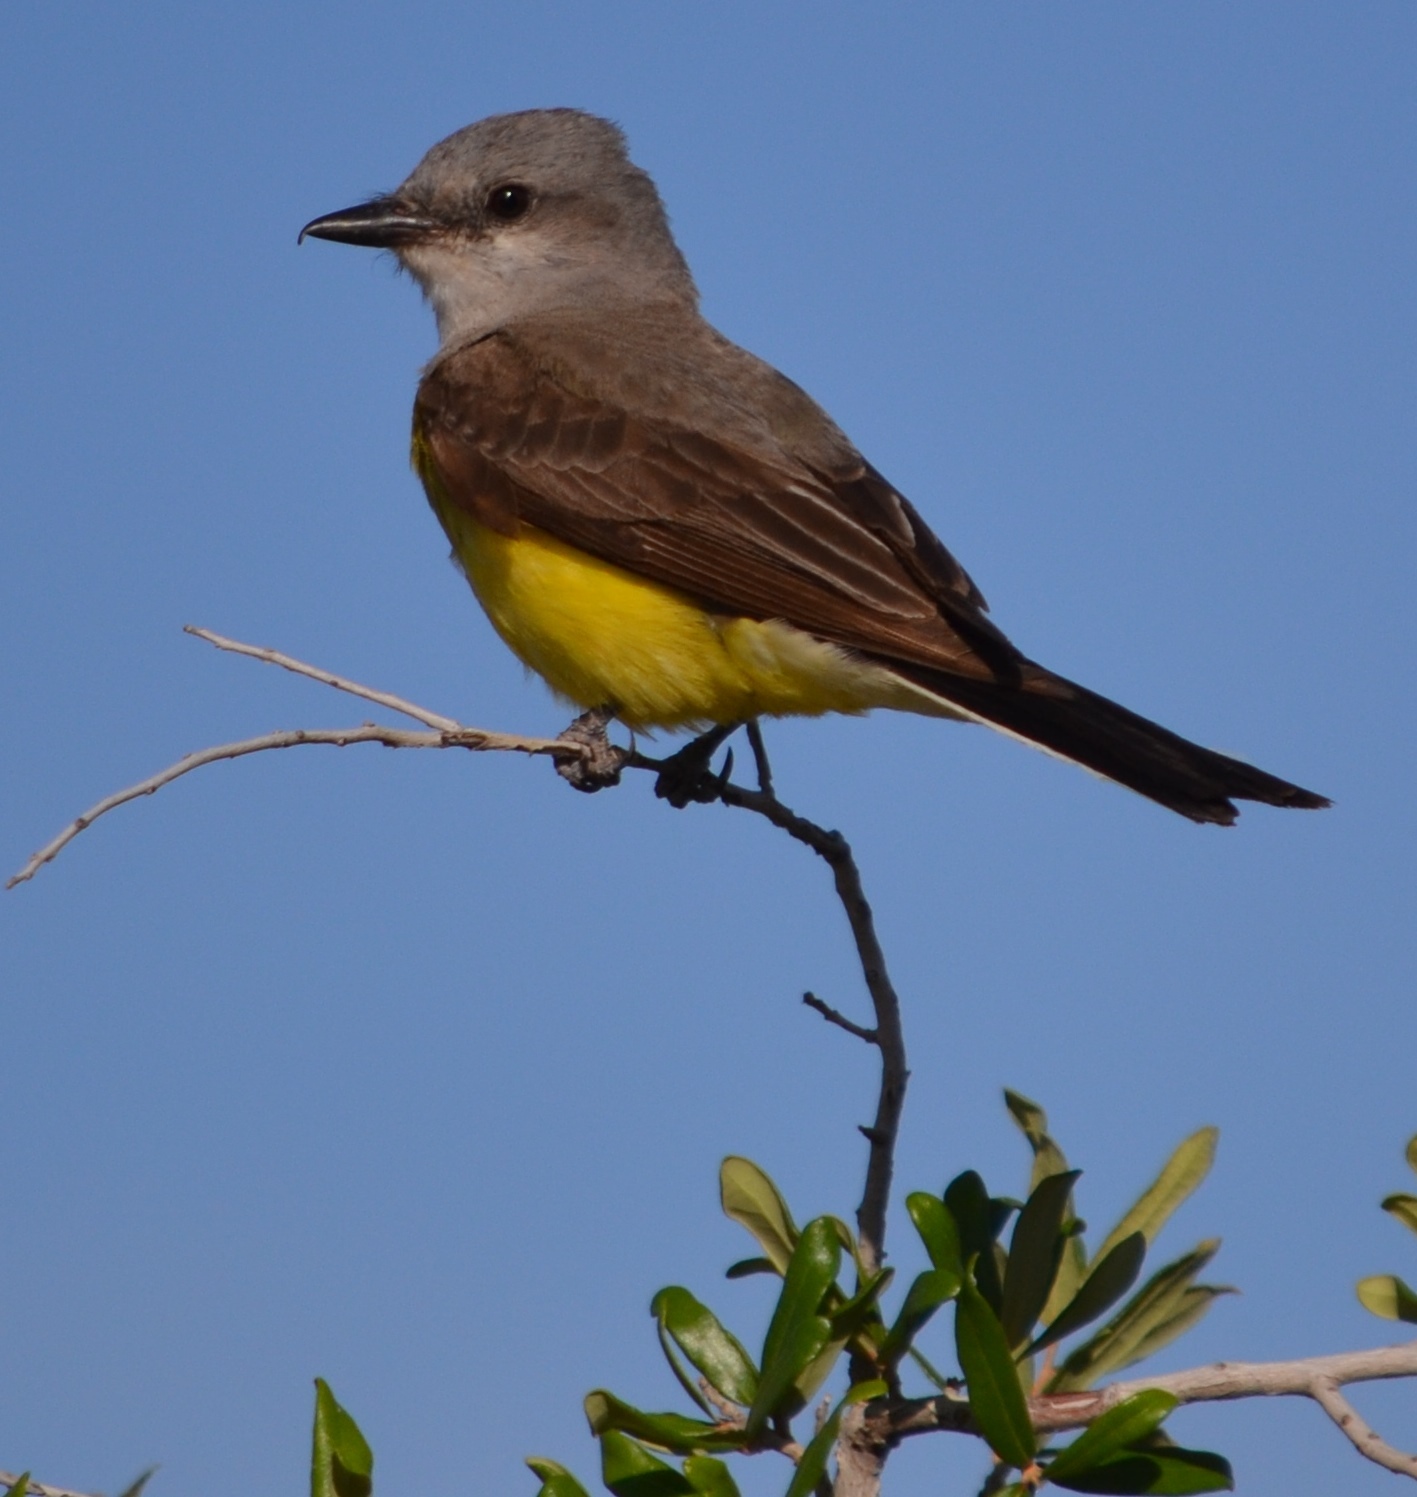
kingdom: Animalia
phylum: Chordata
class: Aves
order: Passeriformes
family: Tyrannidae
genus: Tyrannus
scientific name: Tyrannus verticalis
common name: Western kingbird
